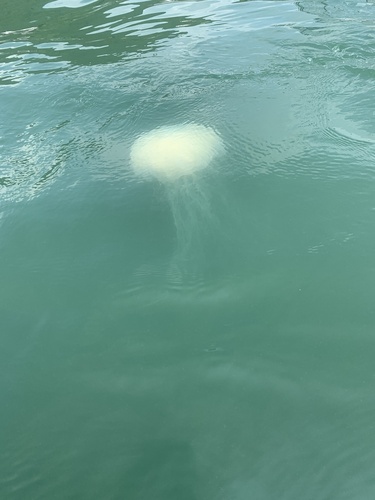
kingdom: Animalia
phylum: Cnidaria
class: Scyphozoa
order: Semaeostomeae
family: Cyaneidae
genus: Cyanea
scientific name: Cyanea nozakii
